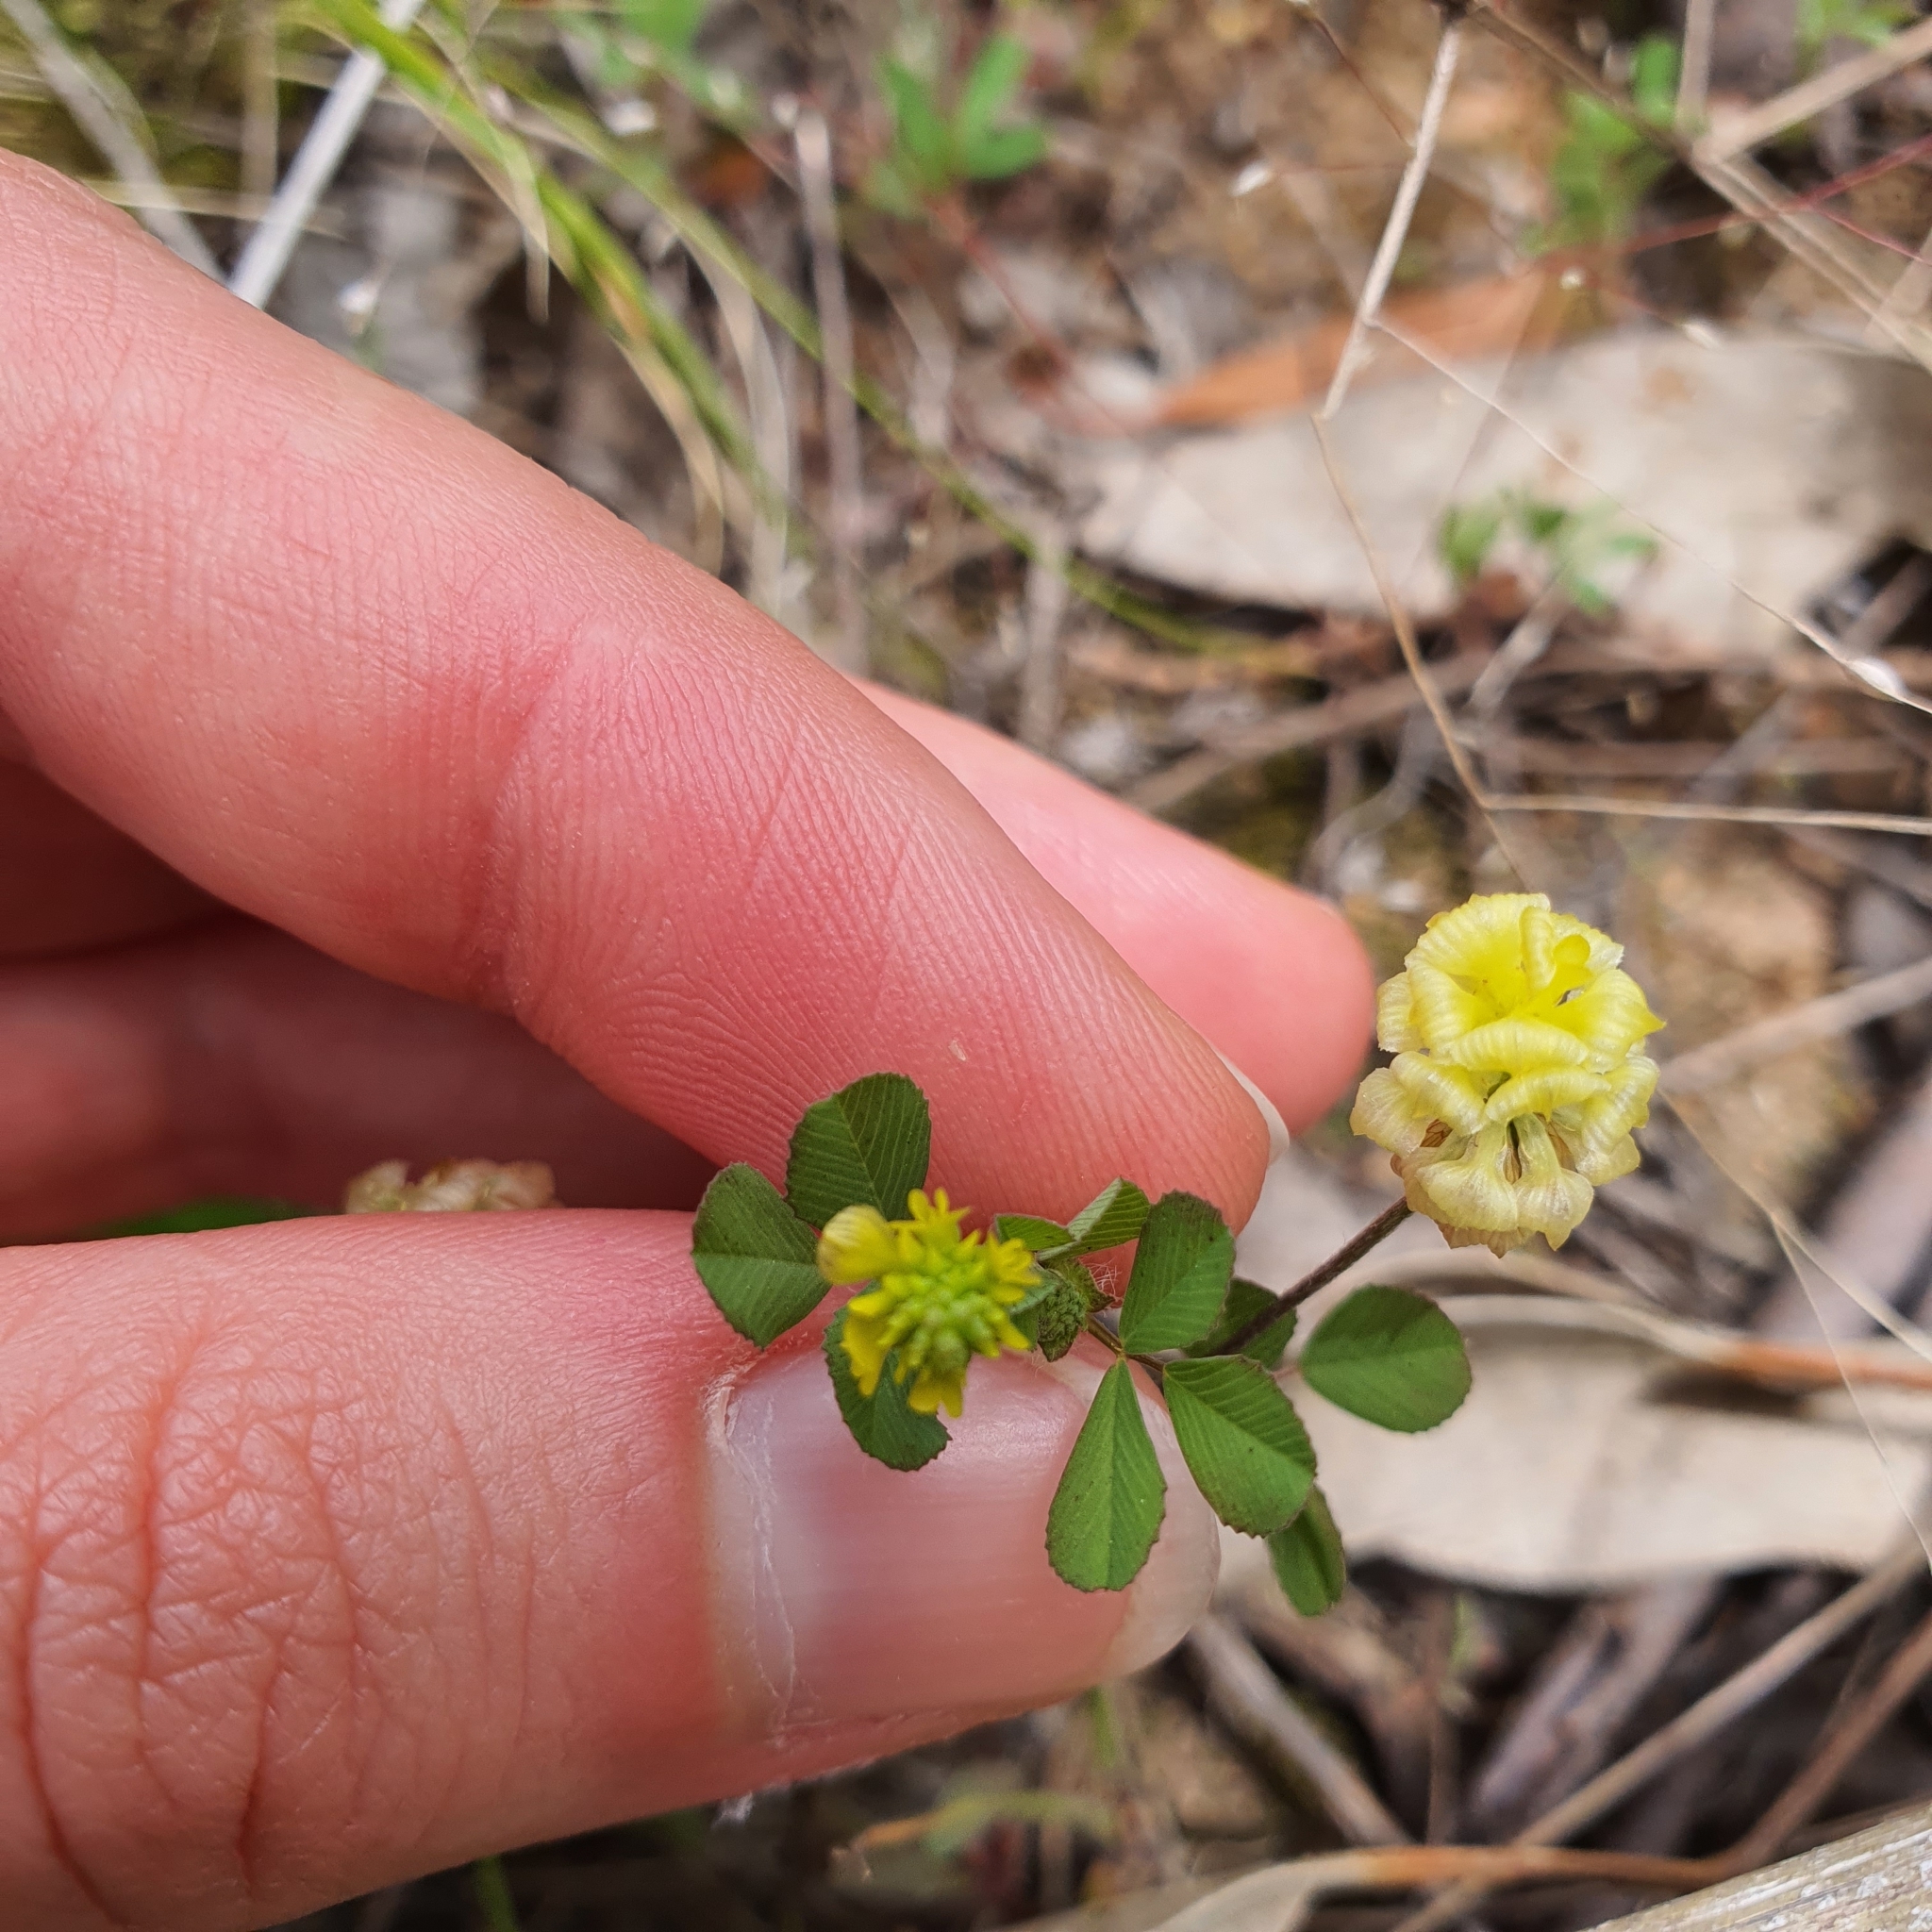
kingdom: Plantae
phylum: Tracheophyta
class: Magnoliopsida
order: Fabales
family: Fabaceae
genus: Trifolium
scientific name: Trifolium campestre
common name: Field clover
